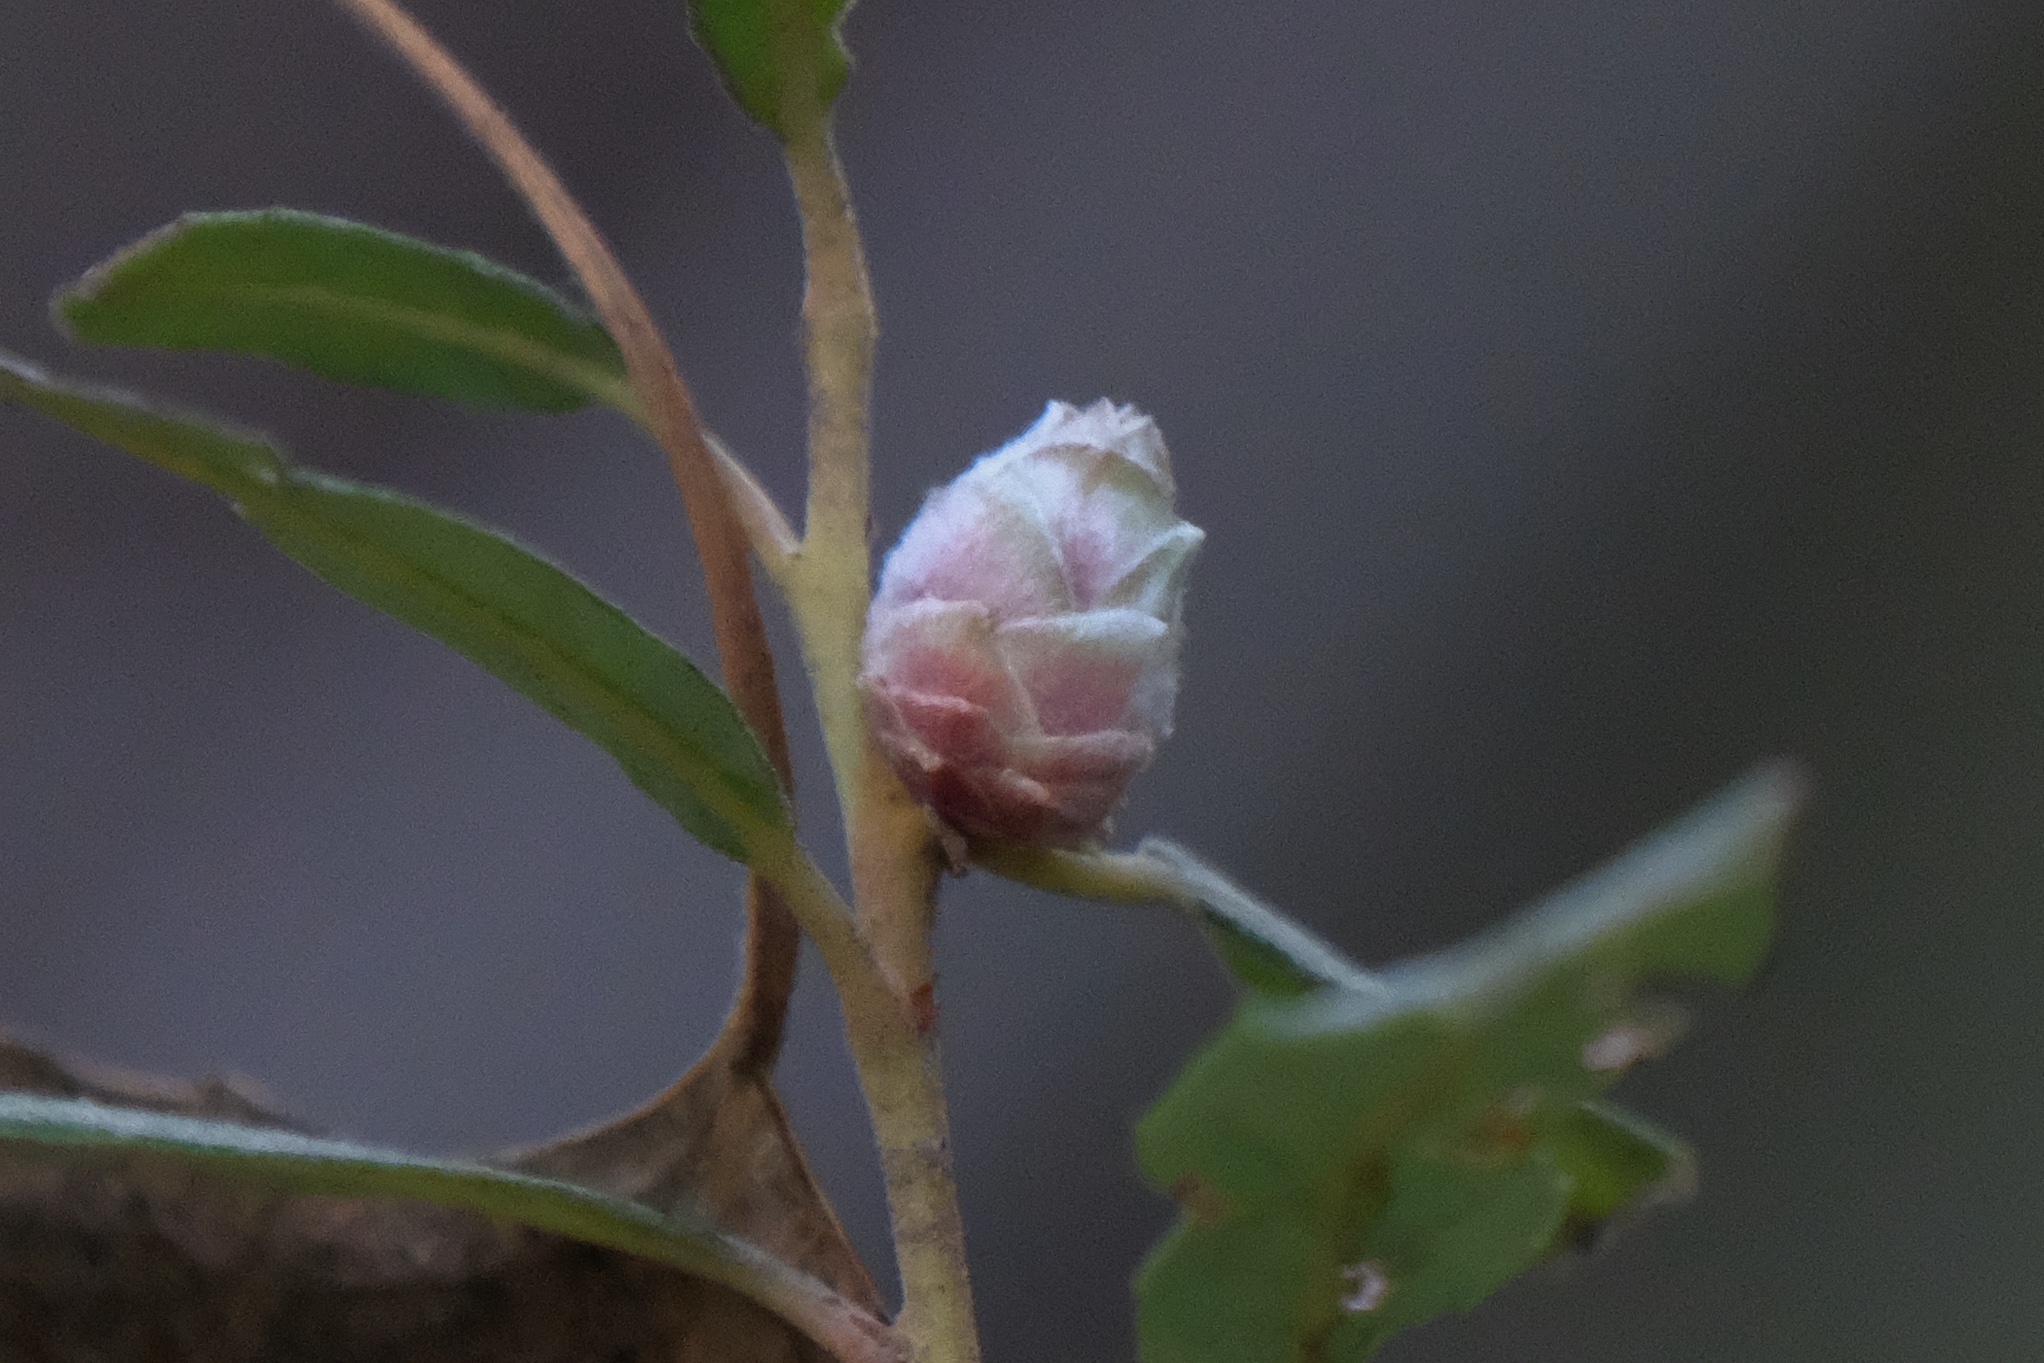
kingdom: Animalia
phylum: Arthropoda
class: Insecta
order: Diptera
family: Cecidomyiidae
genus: Rabdophaga
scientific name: Rabdophaga strobiloides
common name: Willow pinecone gall midge
